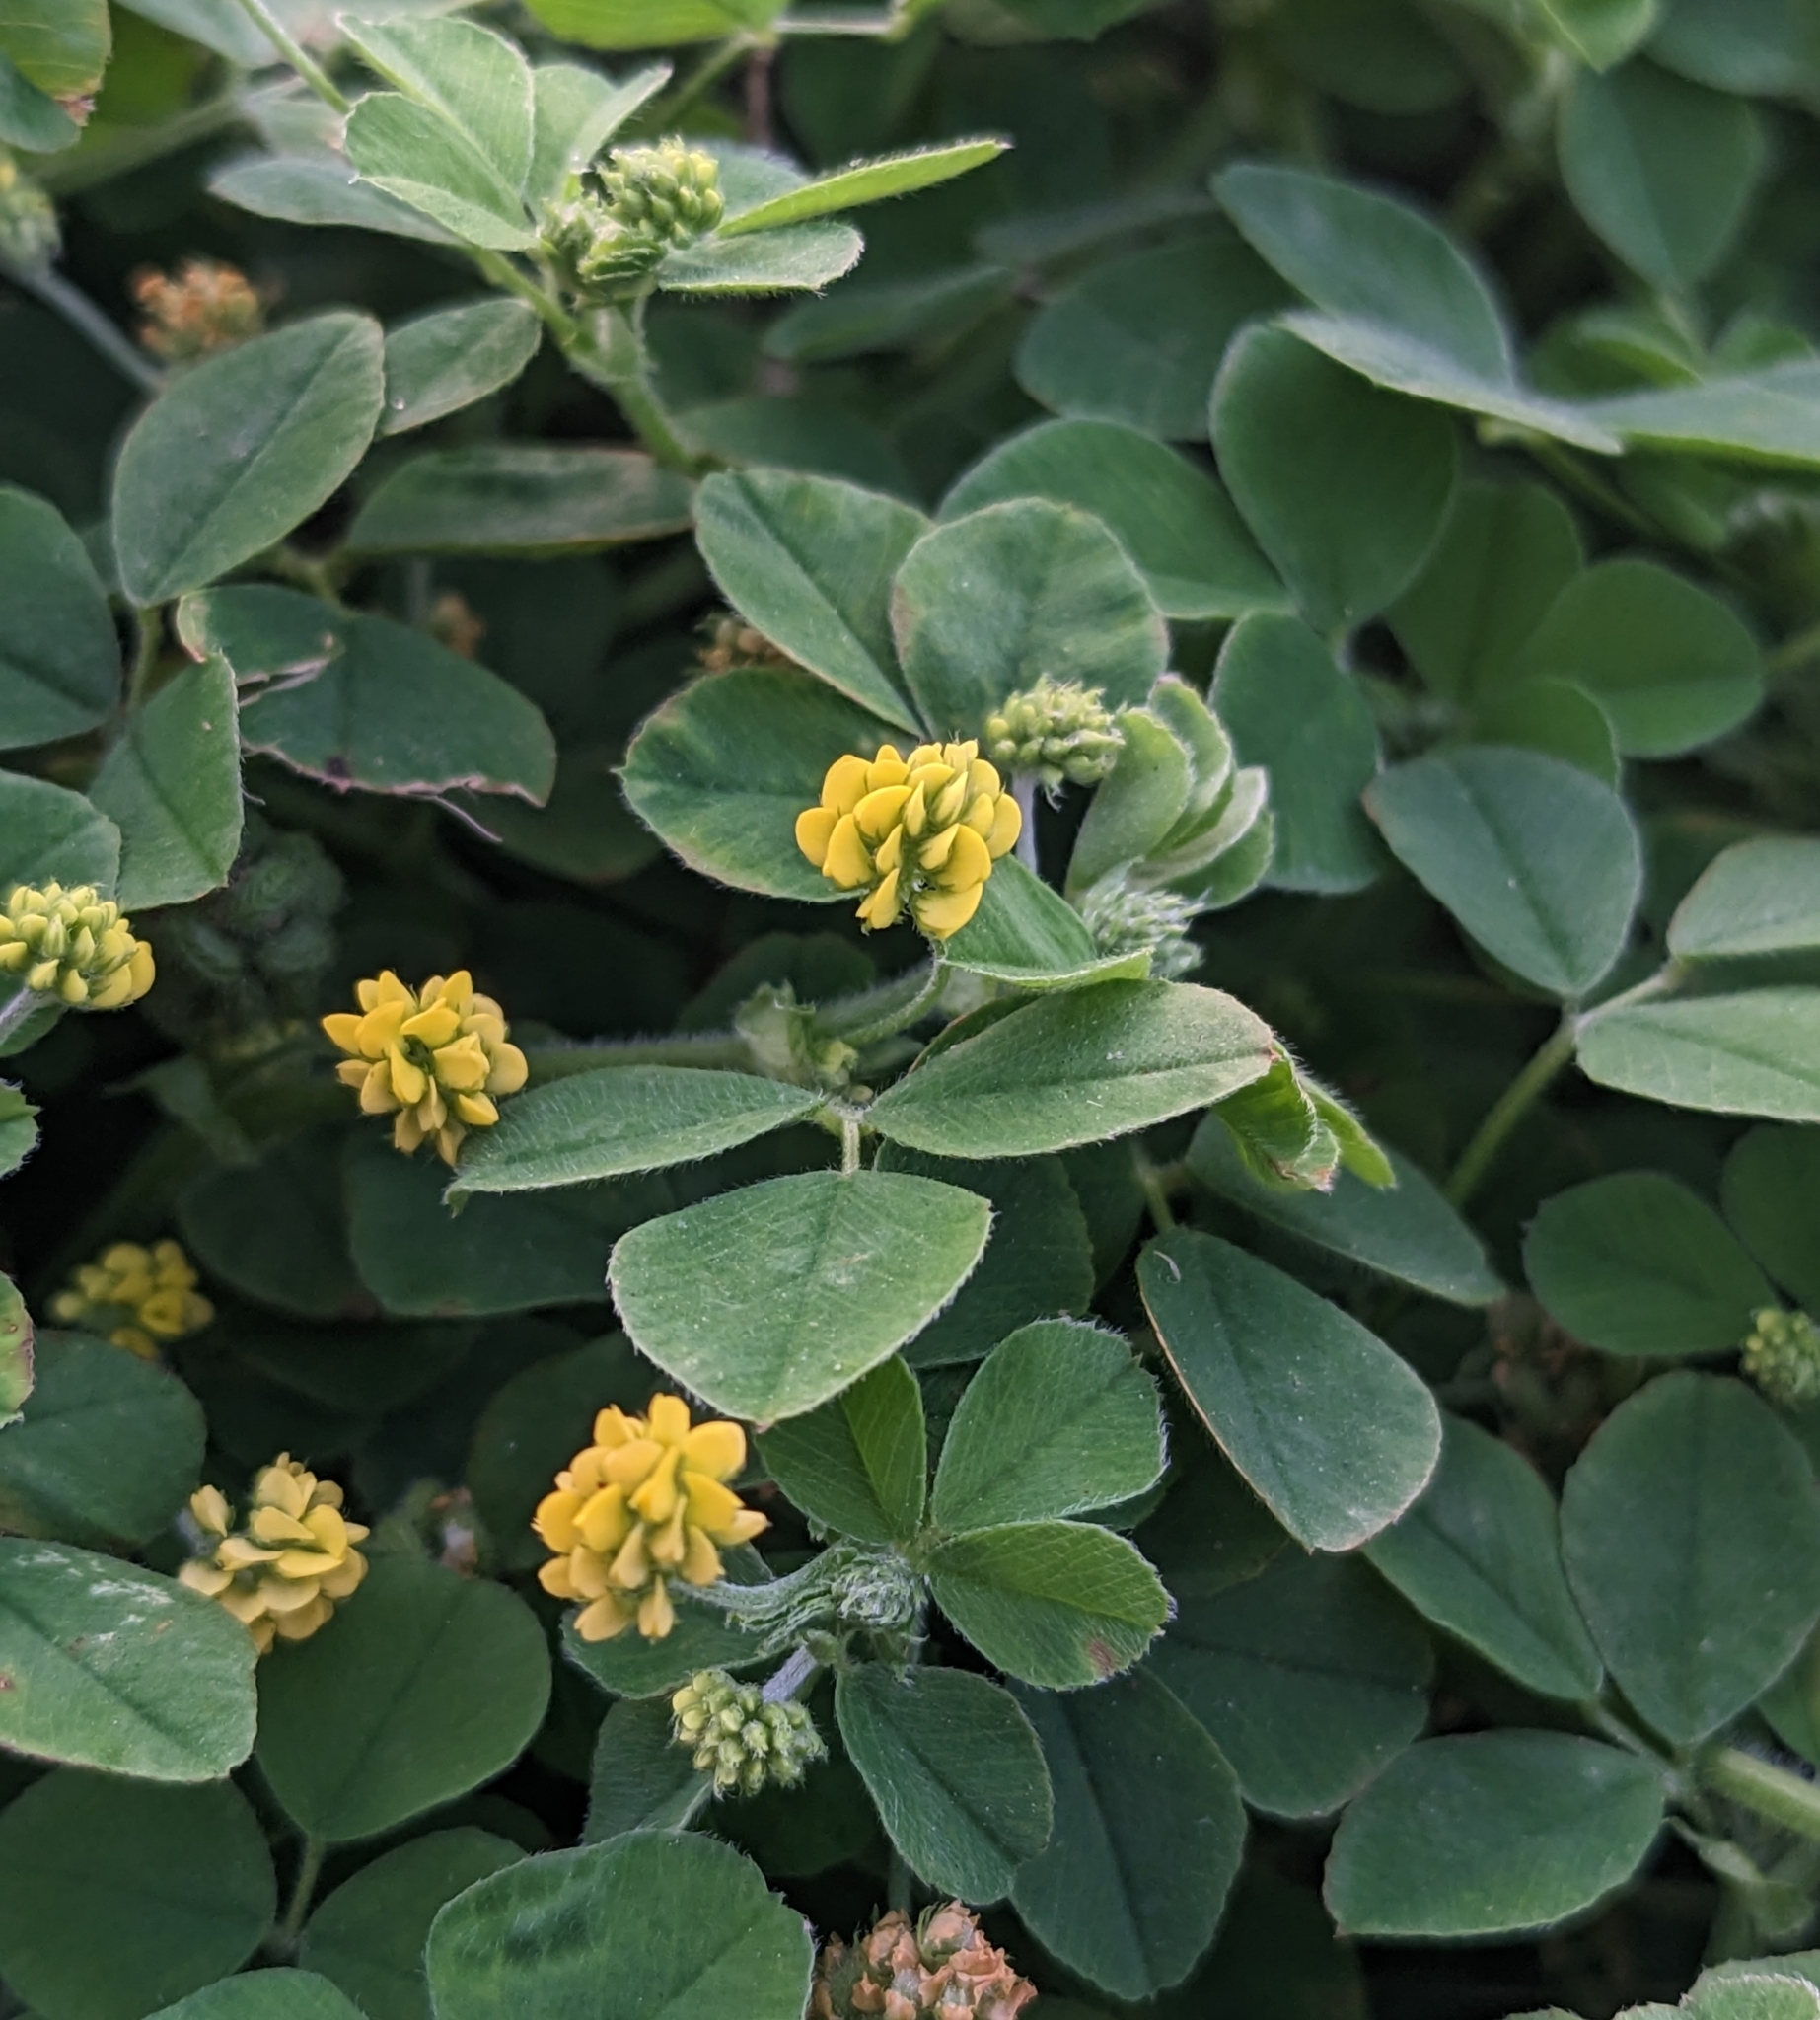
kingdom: Plantae
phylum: Tracheophyta
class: Magnoliopsida
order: Fabales
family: Fabaceae
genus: Medicago
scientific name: Medicago lupulina
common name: Black medick
